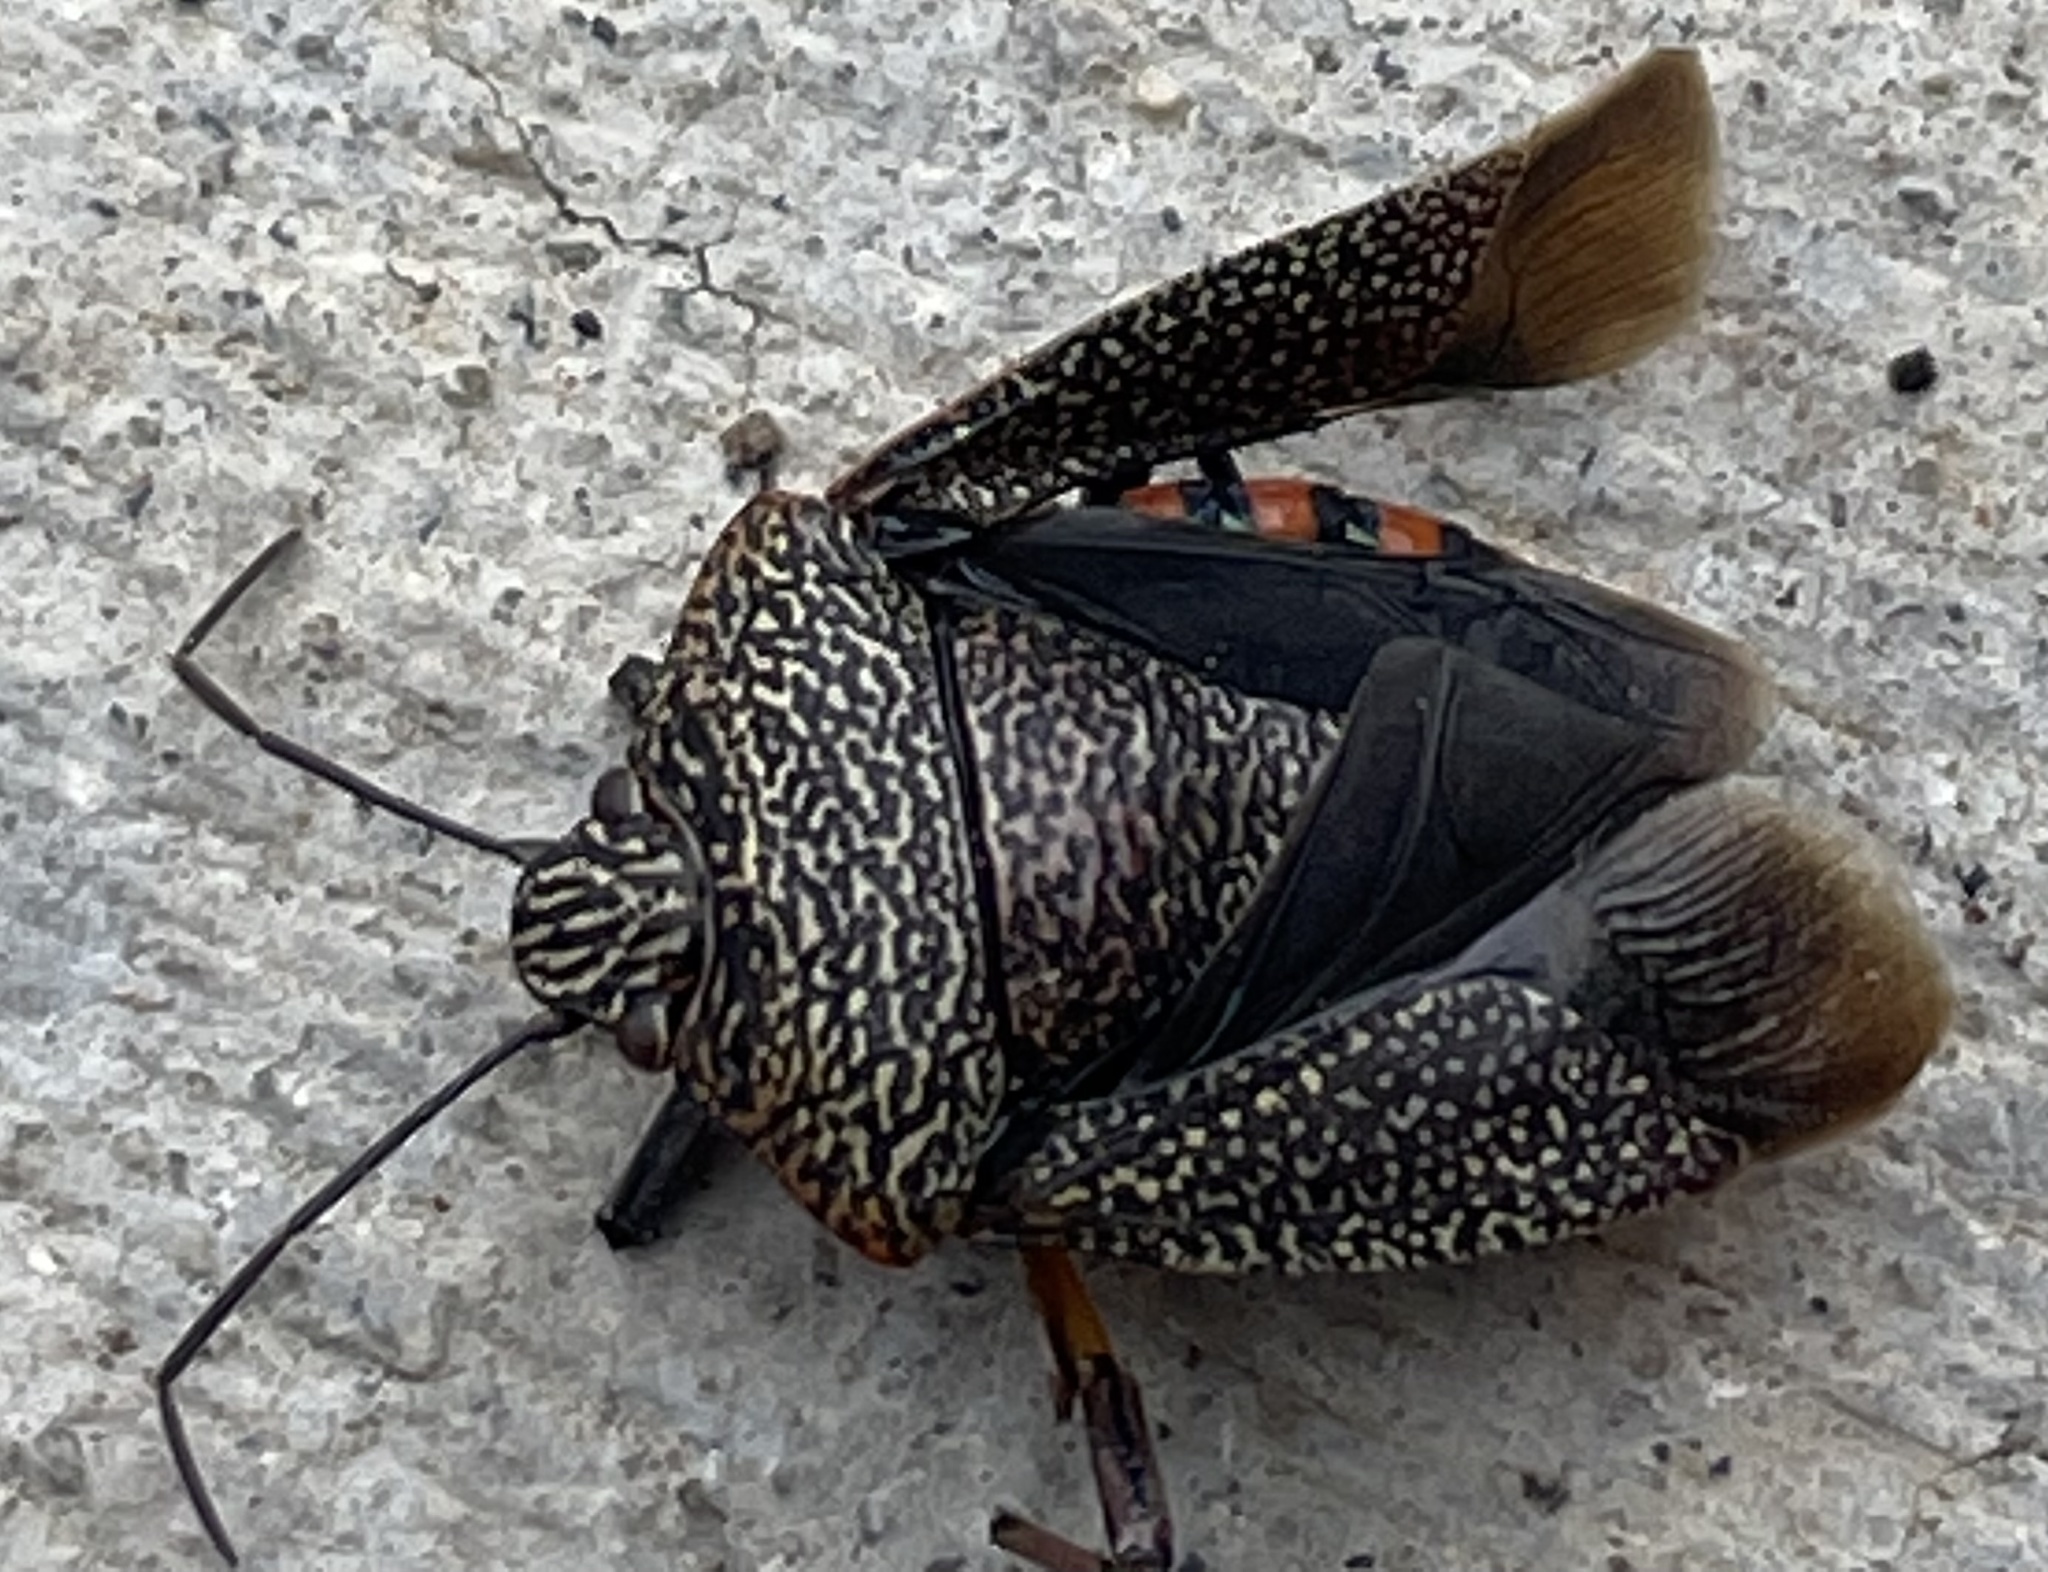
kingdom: Animalia
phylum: Arthropoda
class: Insecta
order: Hemiptera
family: Pentatomidae
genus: Pellaea
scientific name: Pellaea stictica
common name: Stink bug
